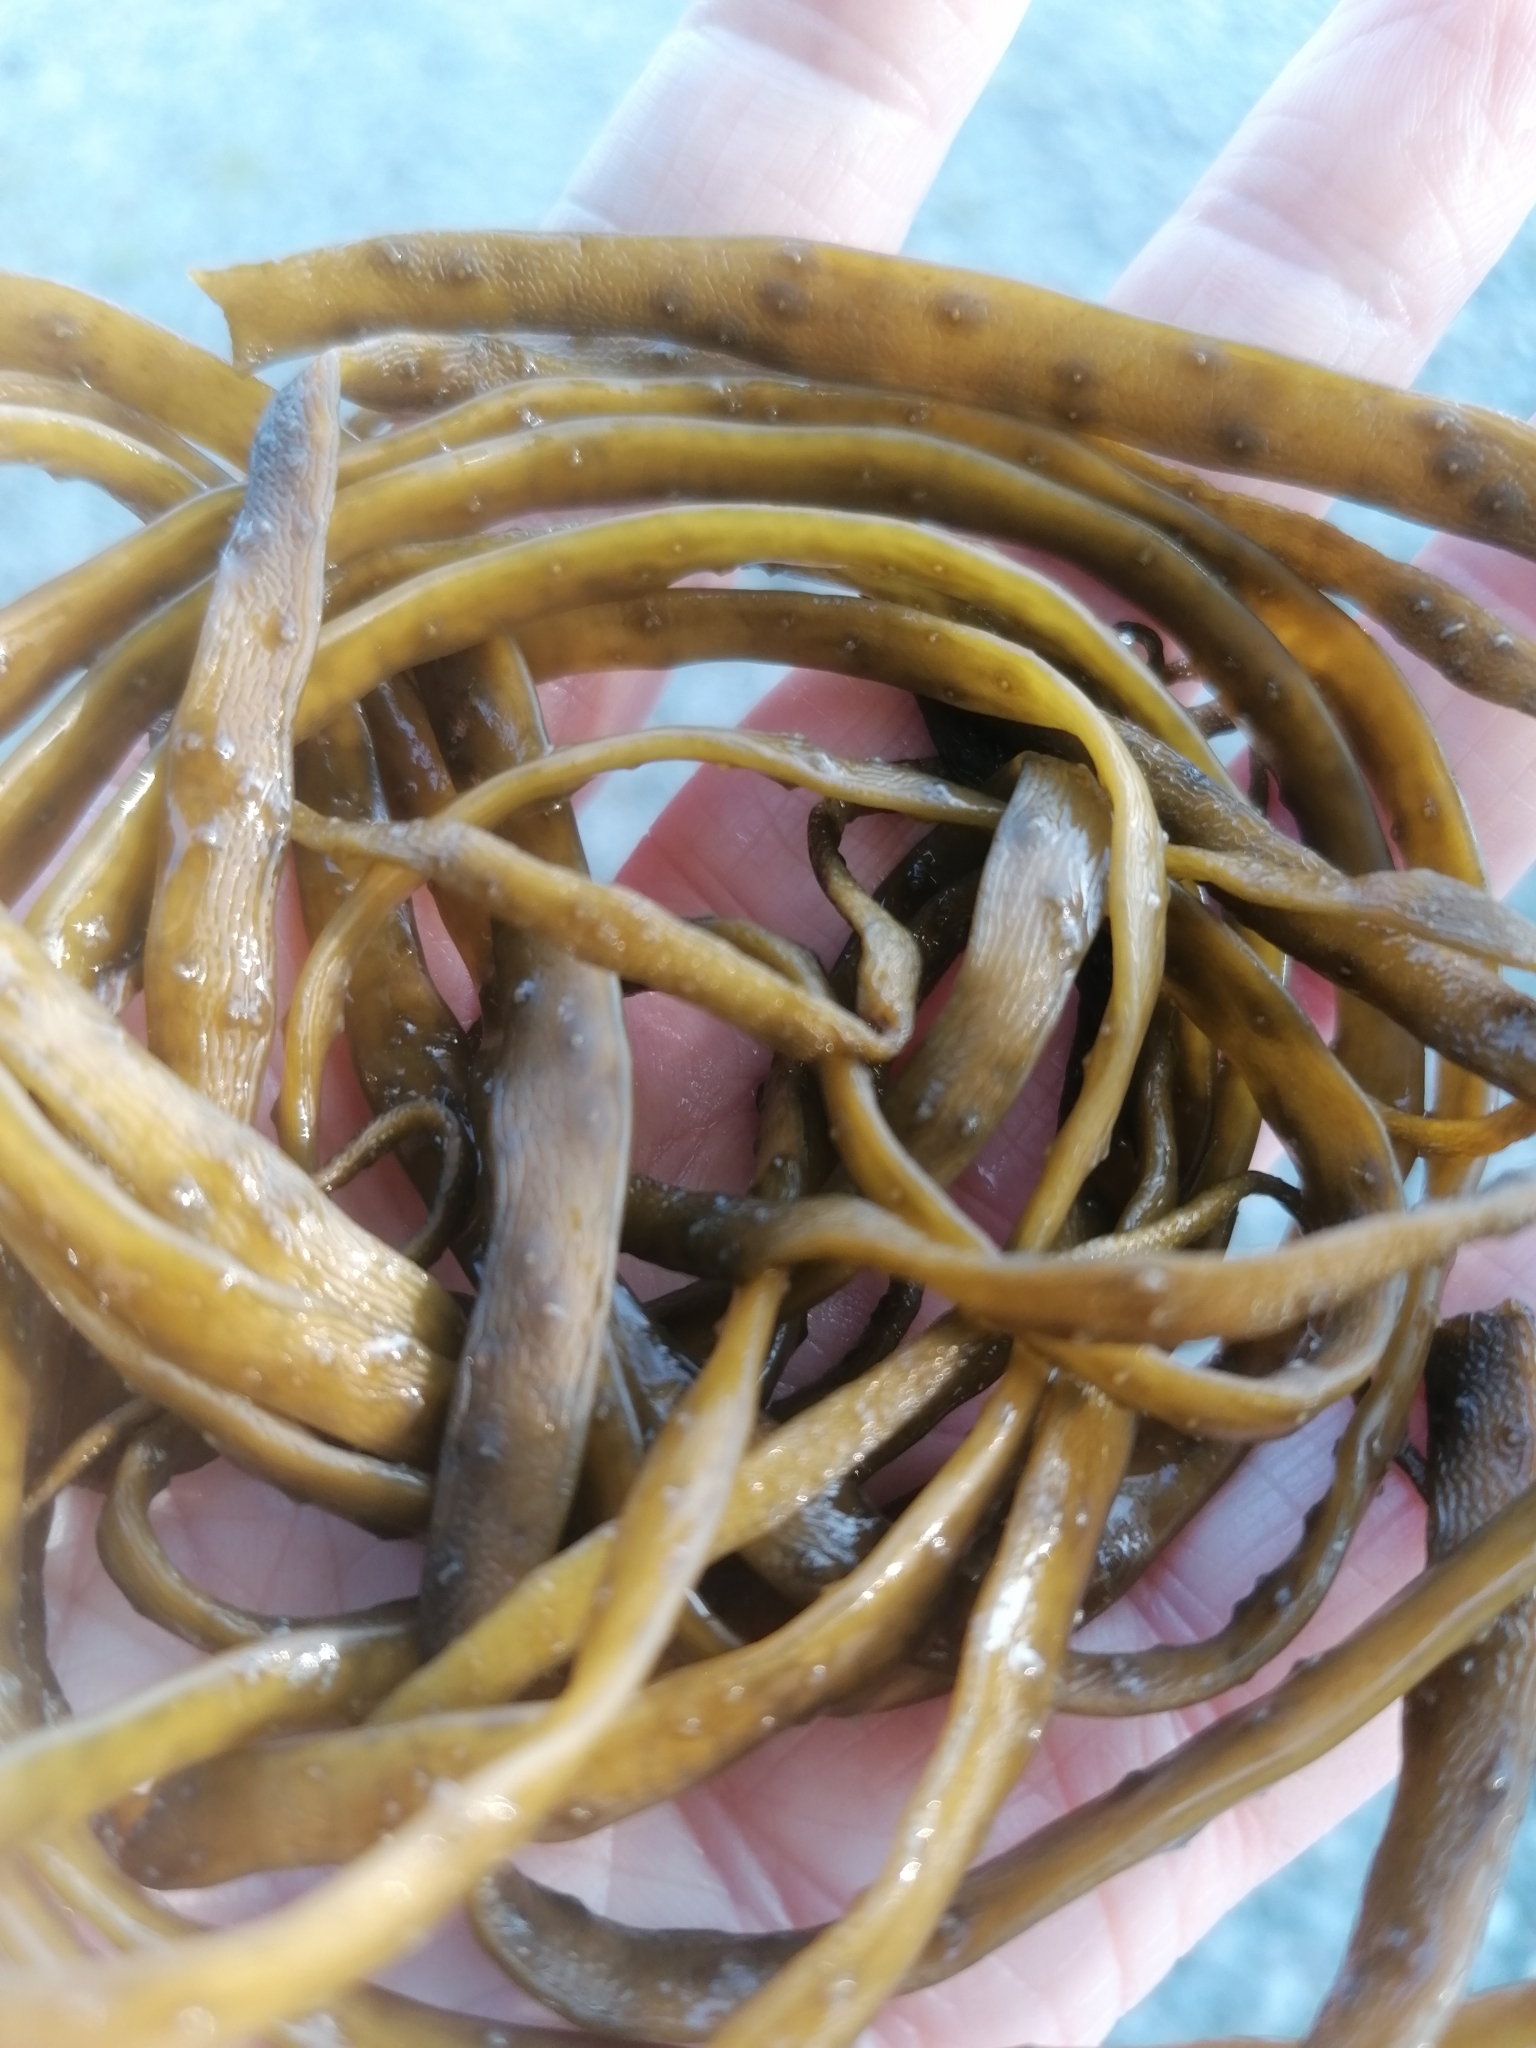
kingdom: Chromista
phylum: Ochrophyta
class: Phaeophyceae
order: Fucales
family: Himanthaliaceae
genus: Himanthalia
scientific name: Himanthalia elongata
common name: Sea-thong
